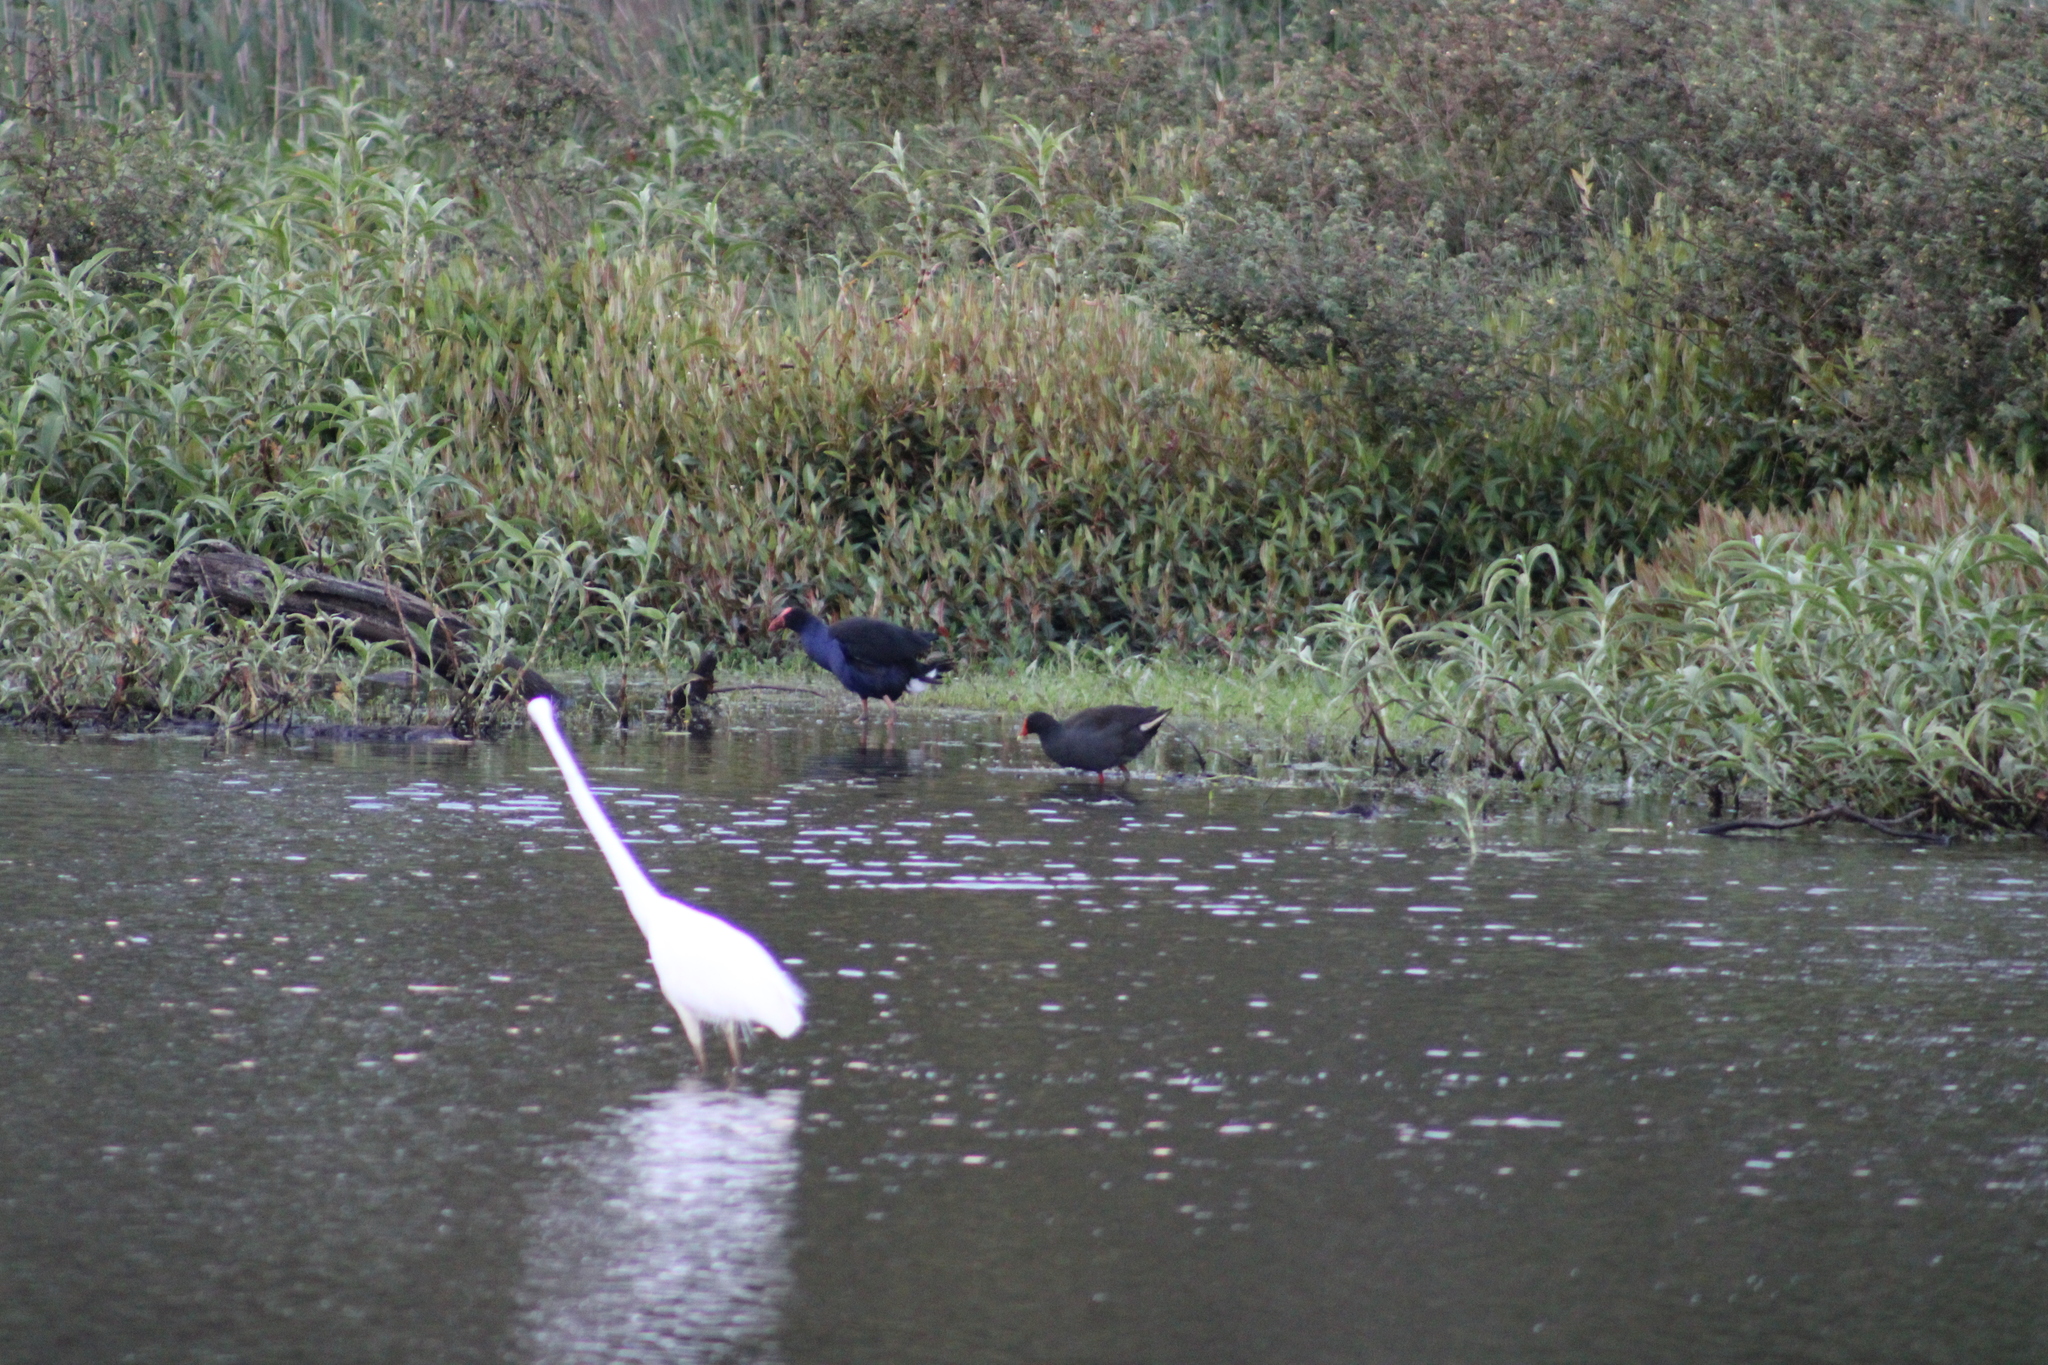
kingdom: Animalia
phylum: Chordata
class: Aves
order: Gruiformes
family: Rallidae
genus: Gallinula
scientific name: Gallinula tenebrosa
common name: Dusky moorhen
